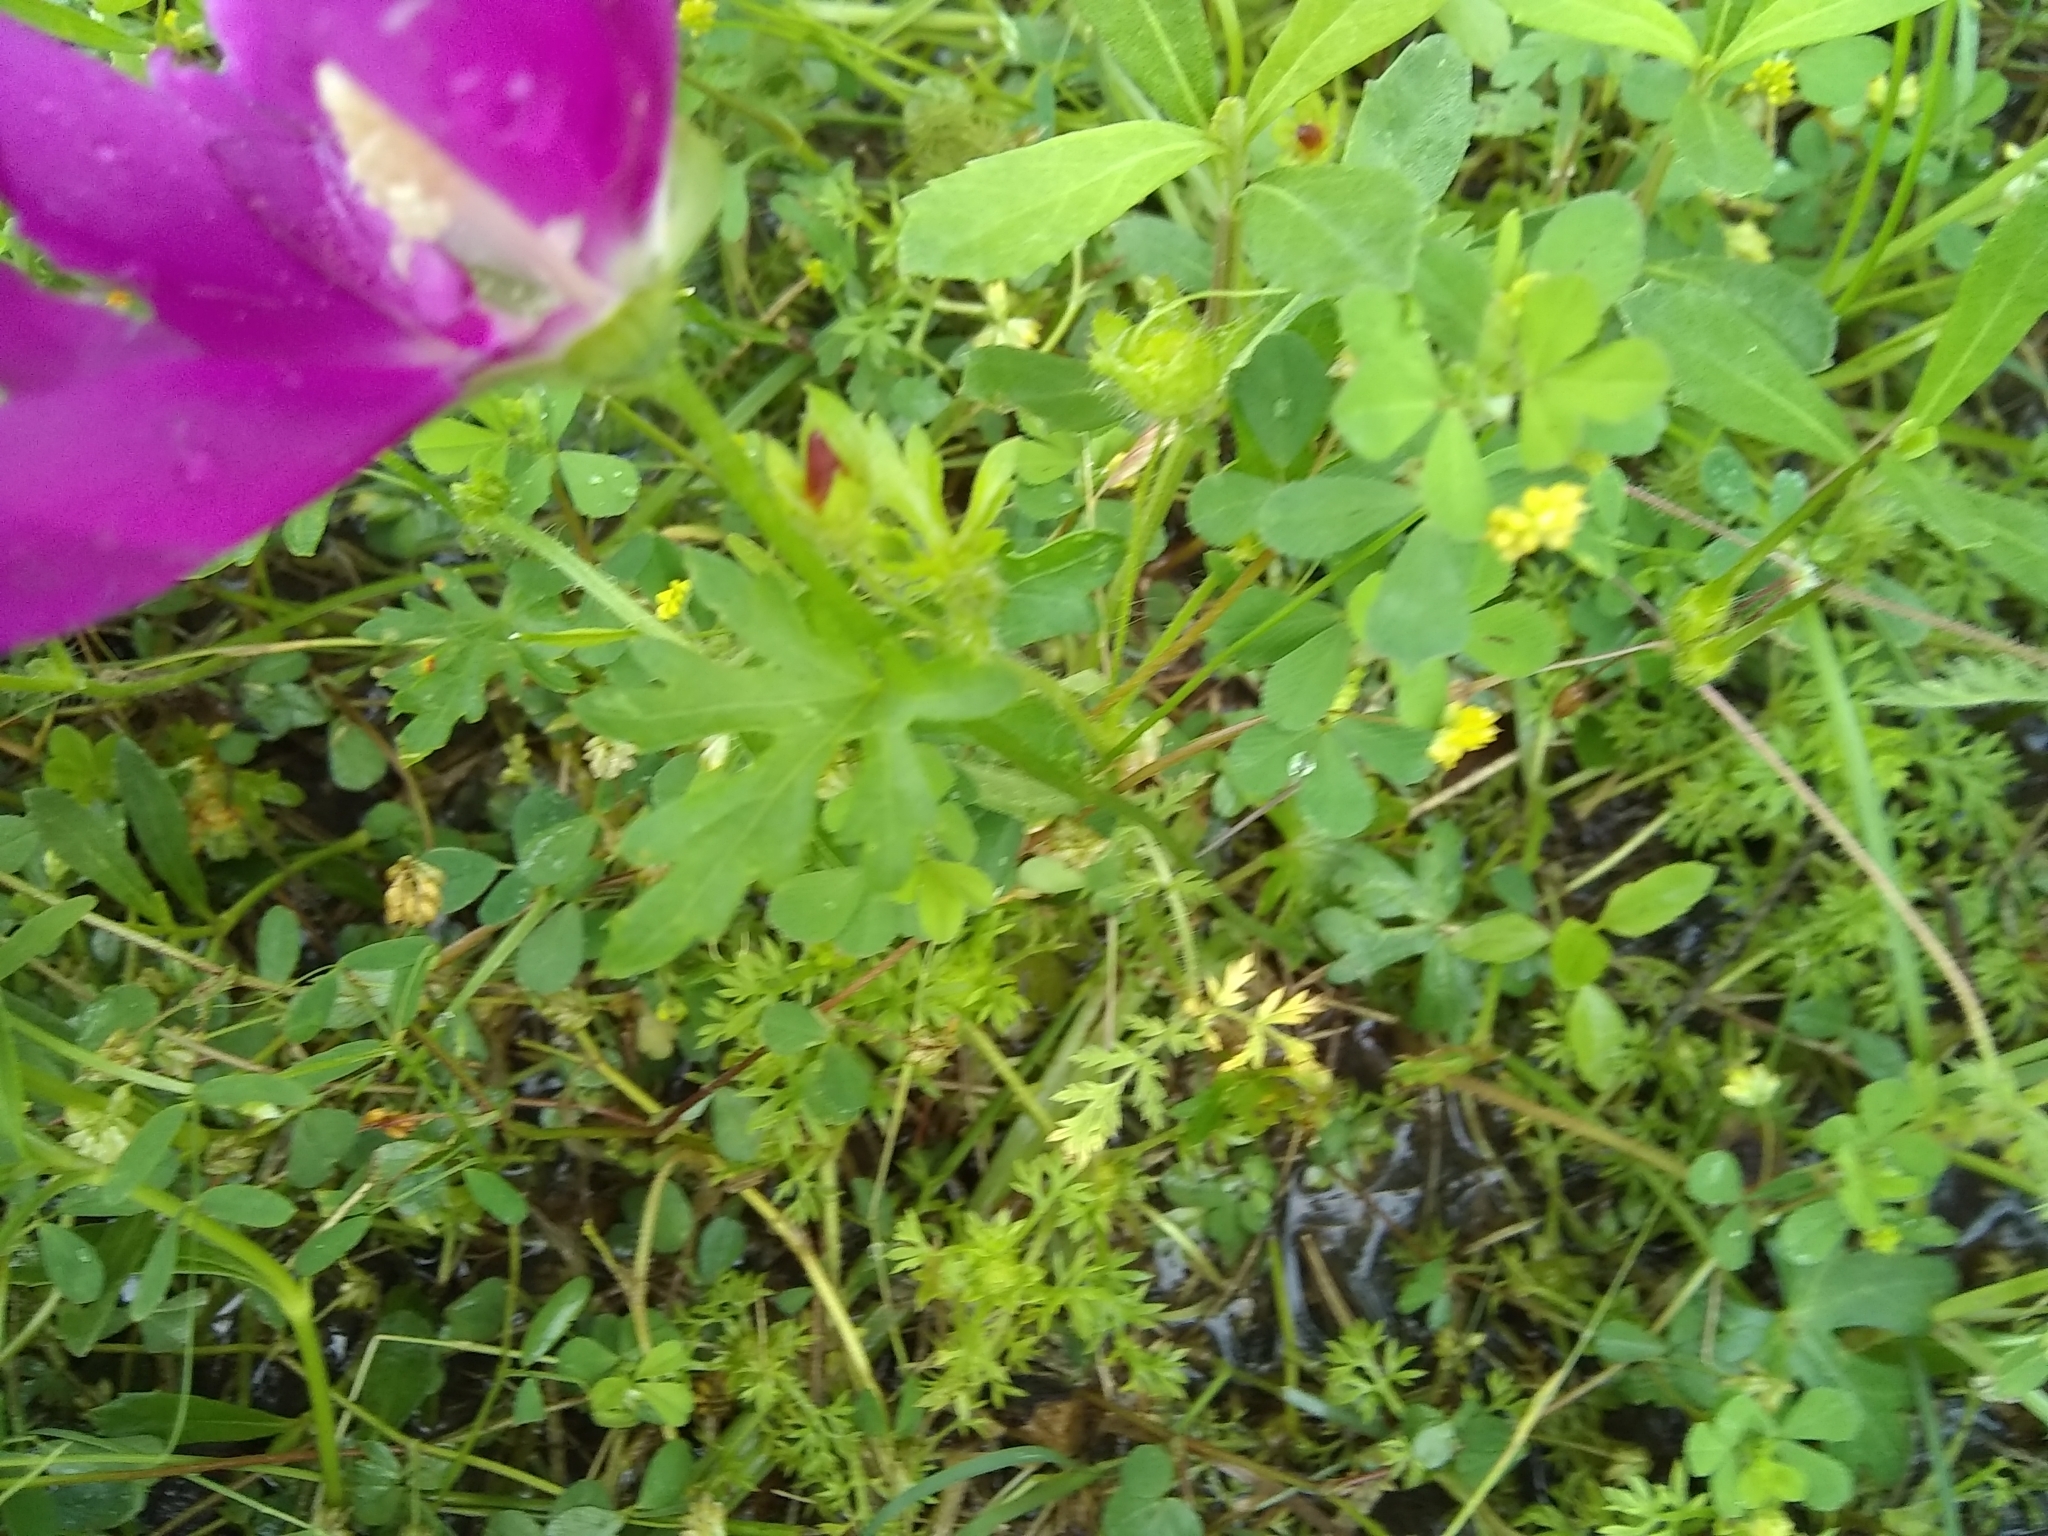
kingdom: Plantae
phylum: Tracheophyta
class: Magnoliopsida
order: Malvales
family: Malvaceae
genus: Callirhoe
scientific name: Callirhoe involucrata
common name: Purple poppy-mallow
